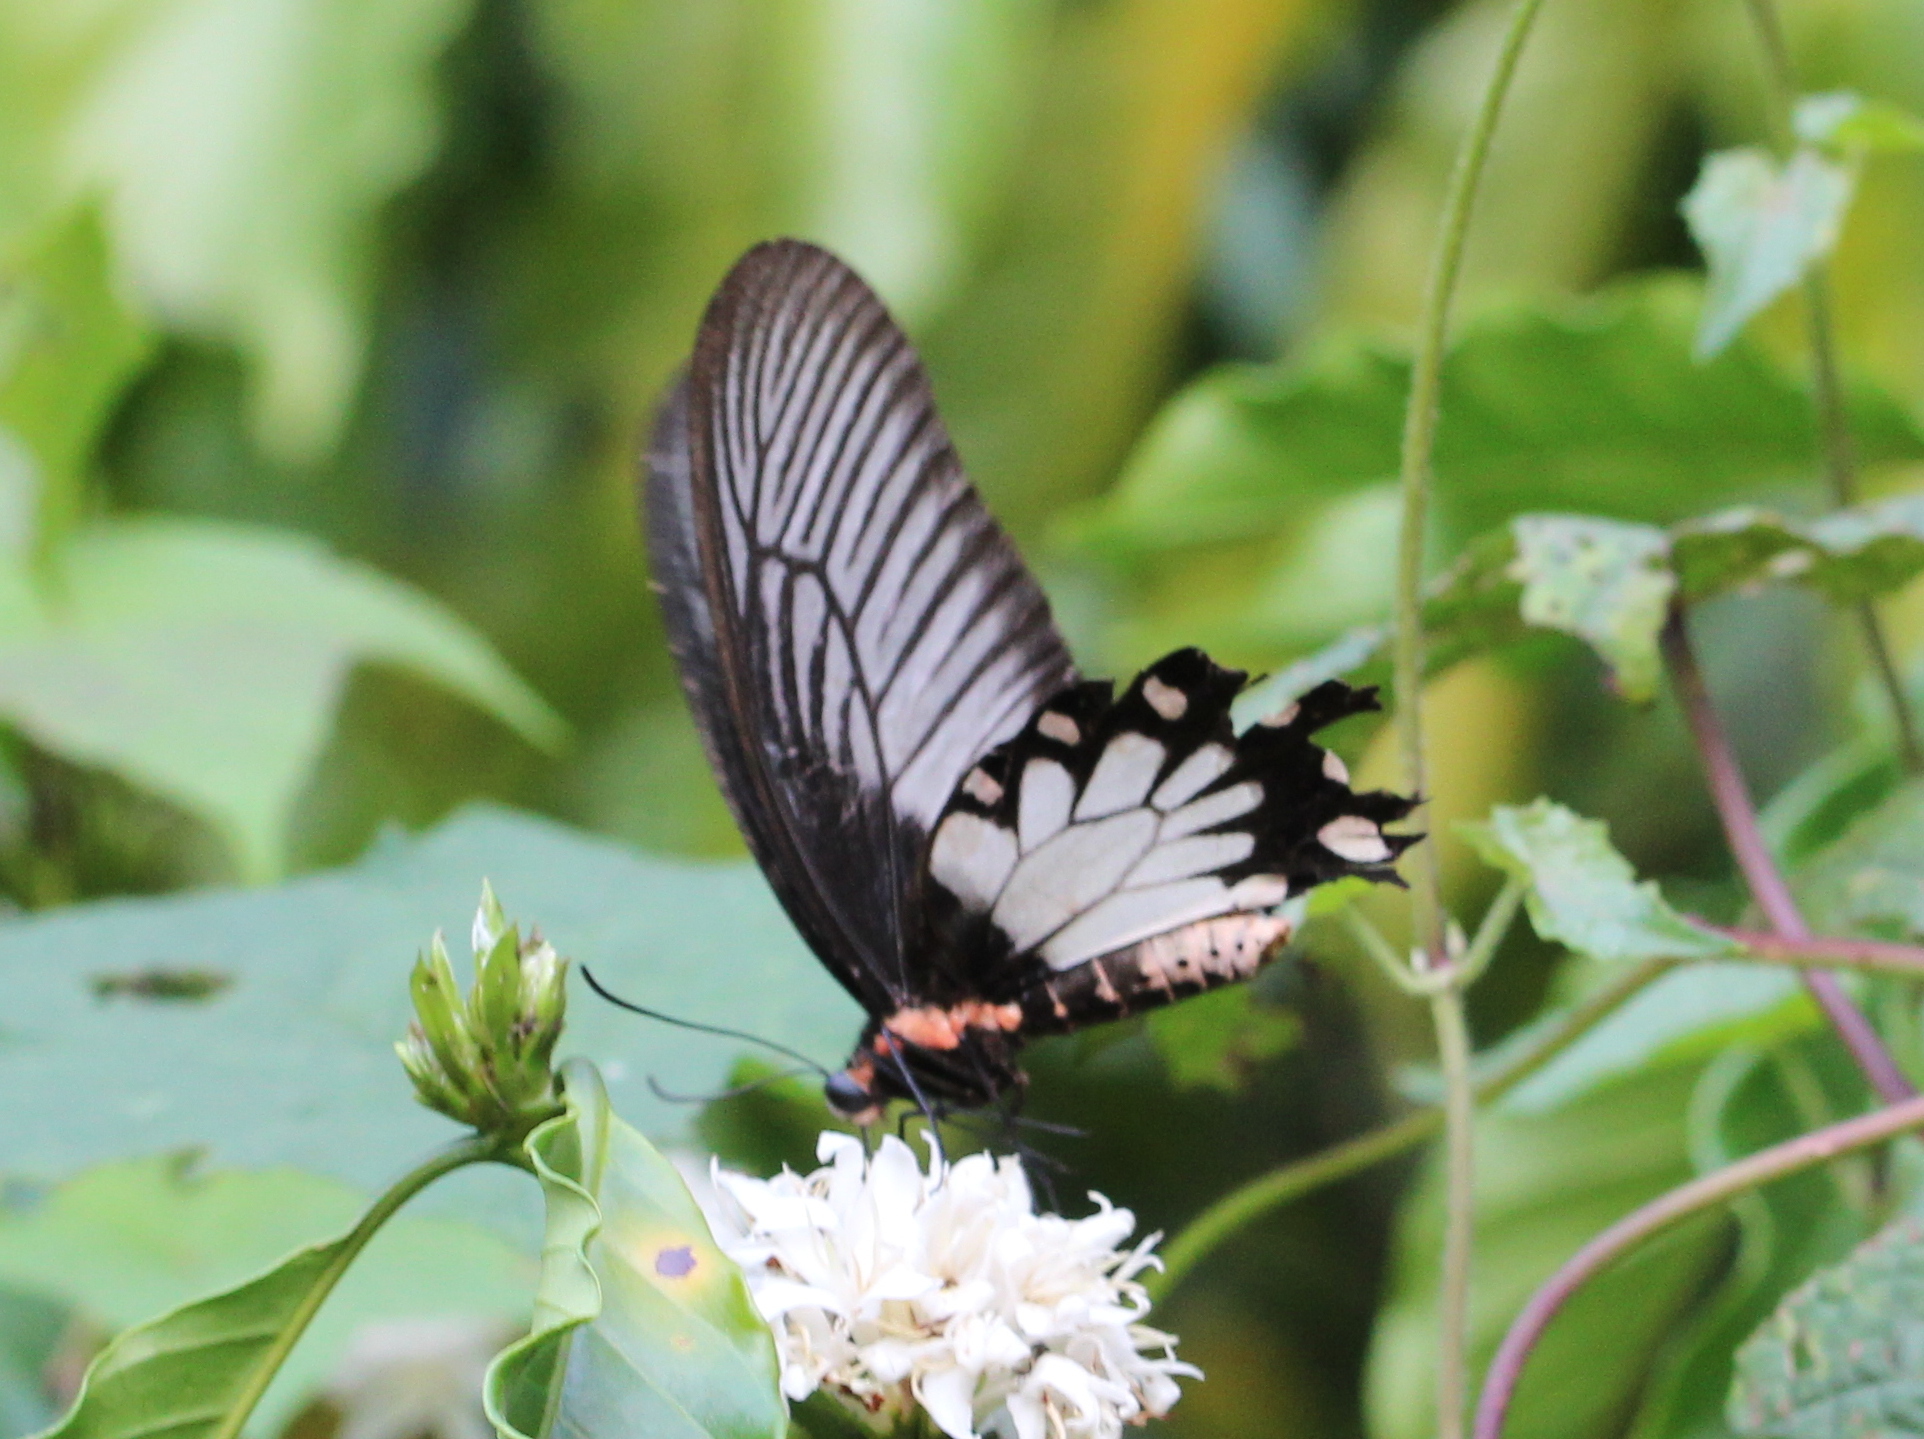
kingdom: Animalia
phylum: Arthropoda
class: Insecta
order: Lepidoptera
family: Papilionidae
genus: Pachliopta
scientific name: Pachliopta pandiyana
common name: Malabar rose
